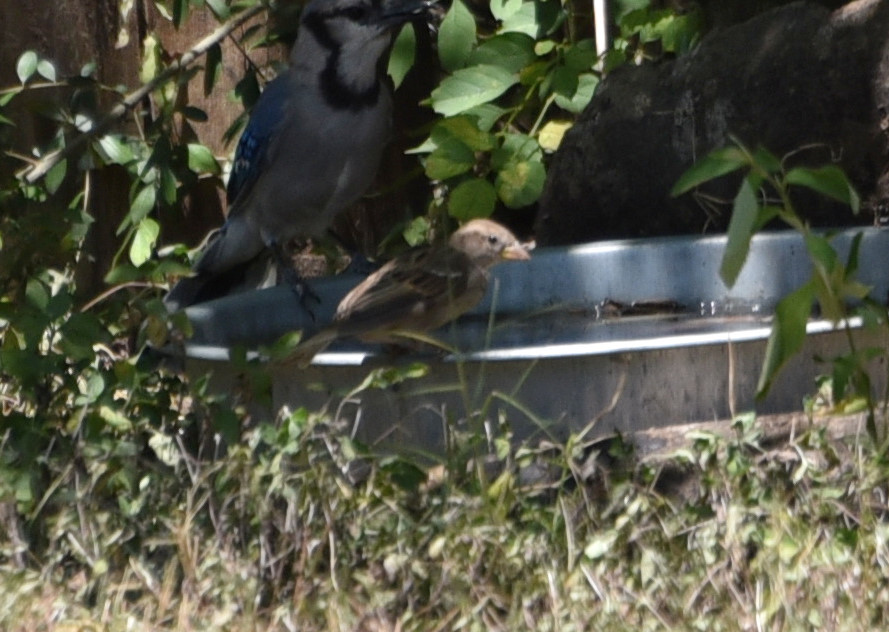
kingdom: Animalia
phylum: Chordata
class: Aves
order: Passeriformes
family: Passeridae
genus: Passer
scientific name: Passer domesticus
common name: House sparrow
